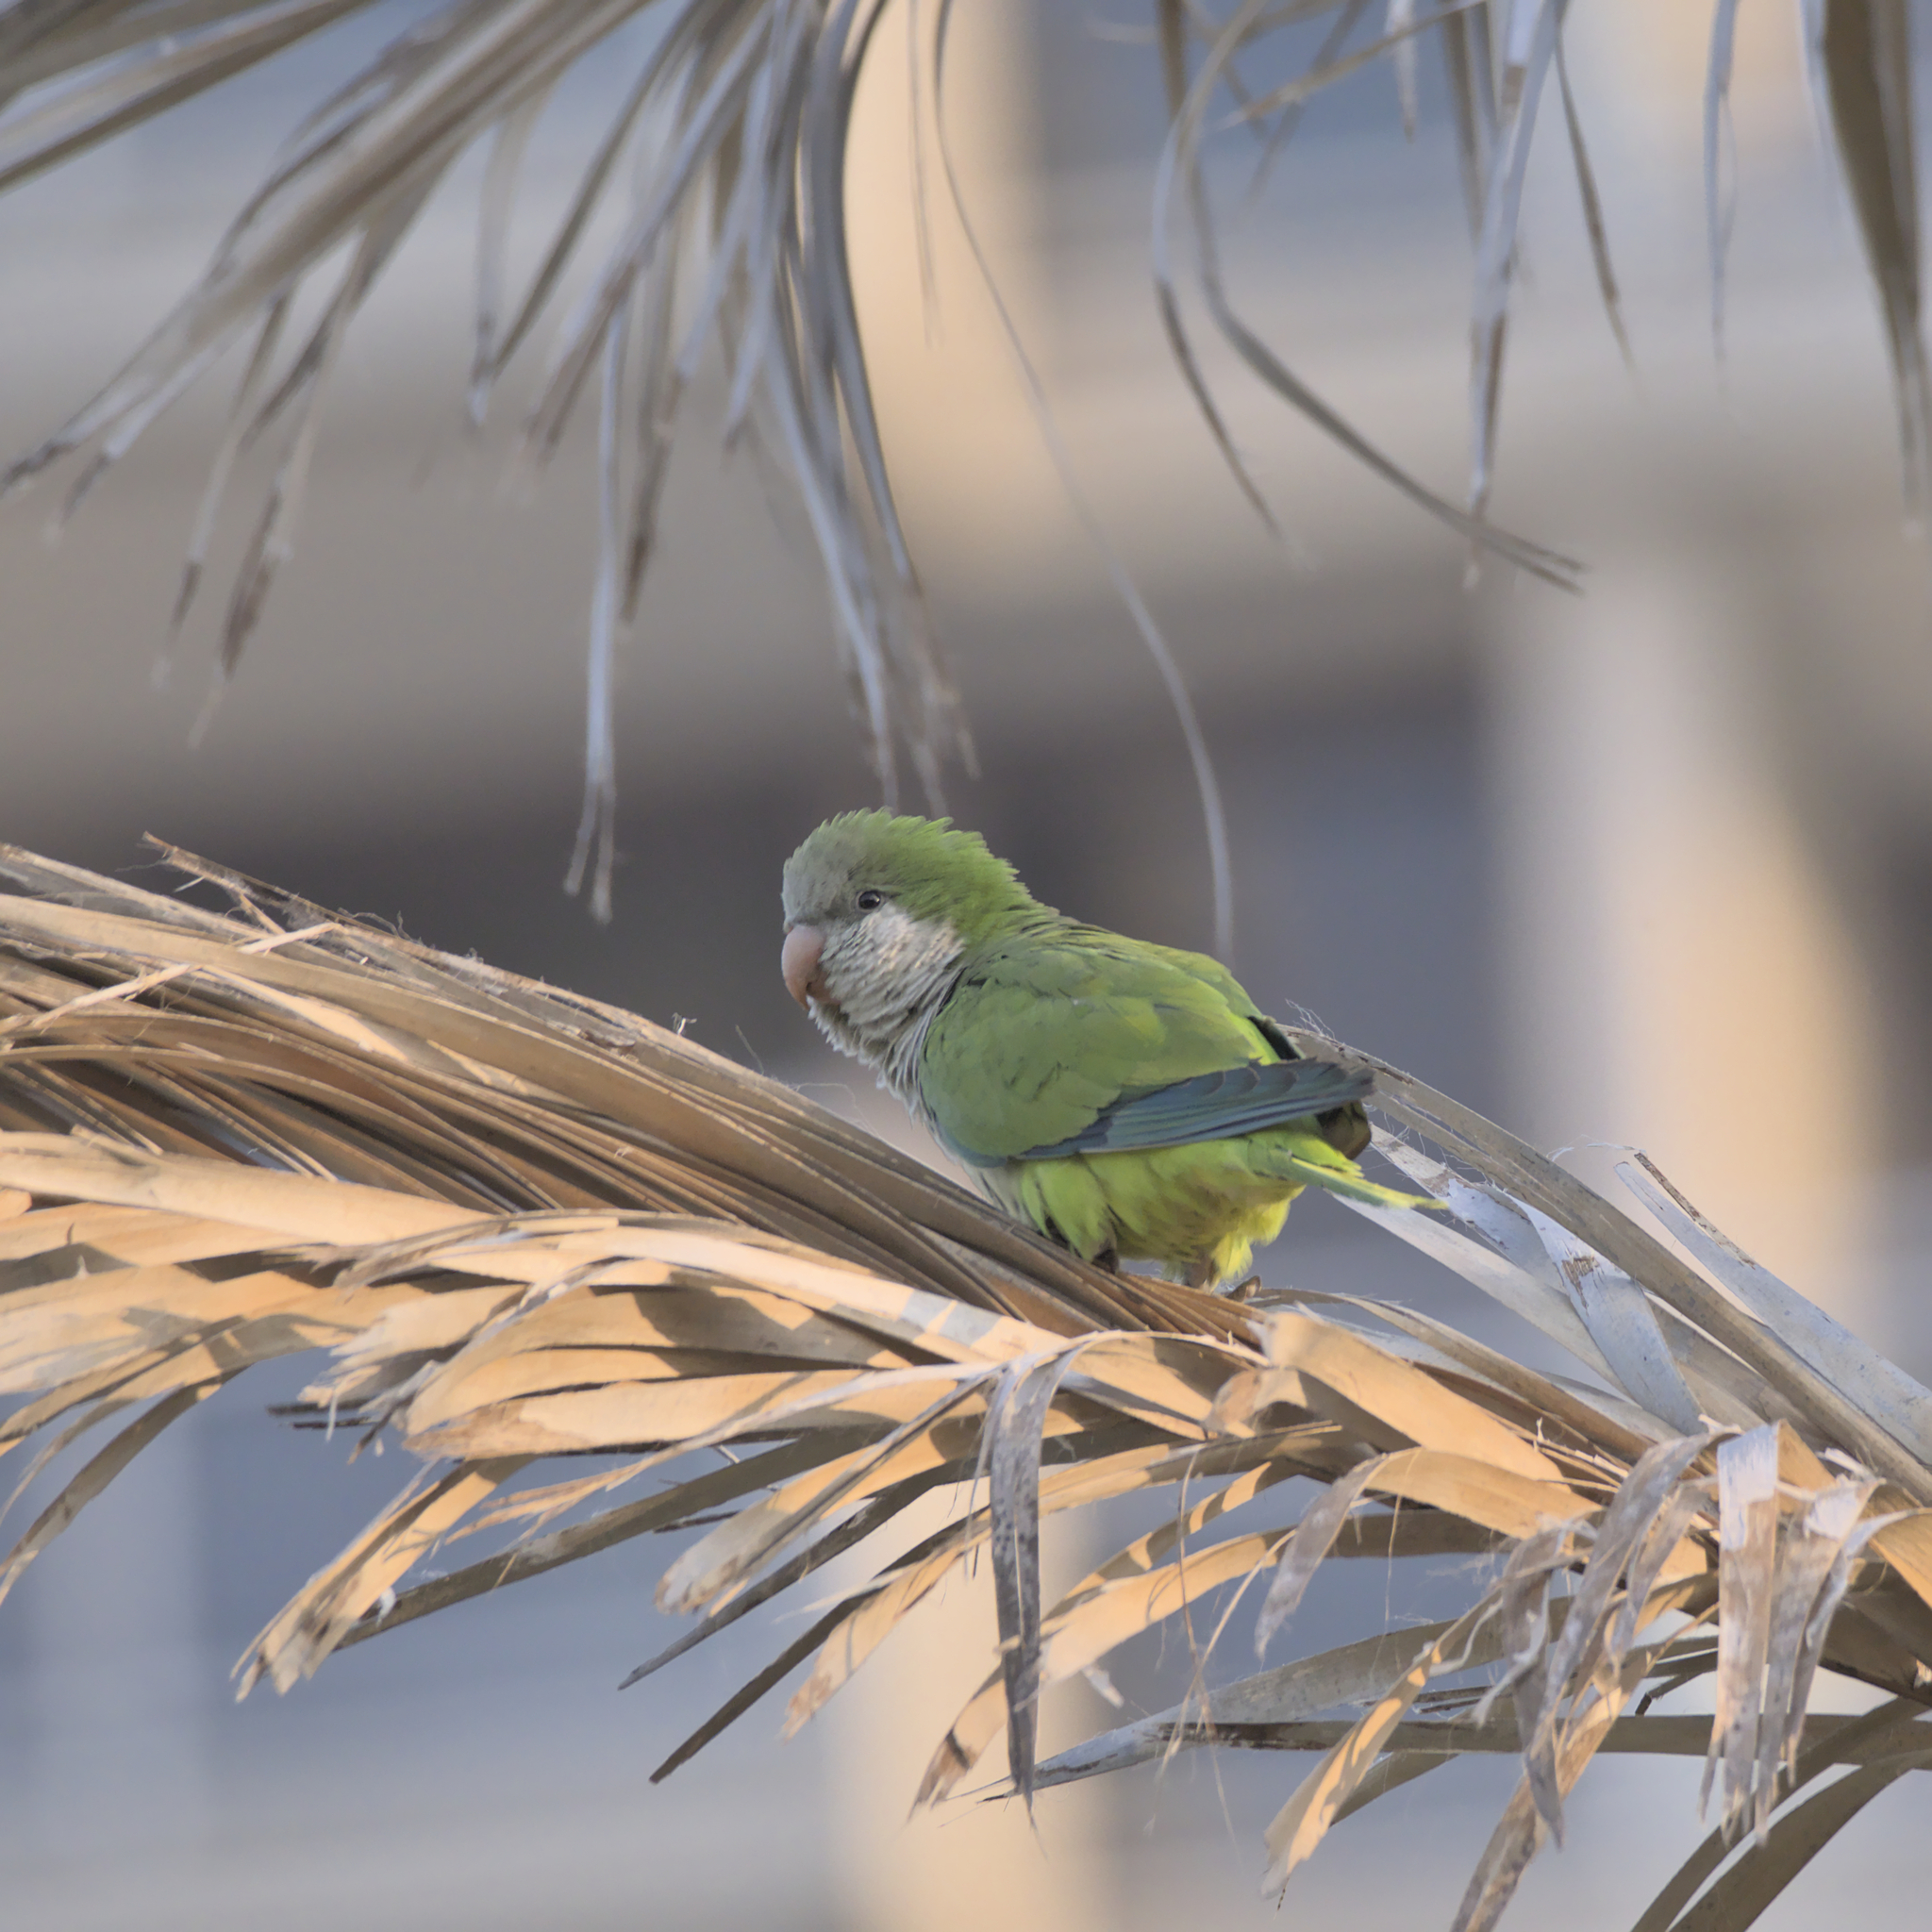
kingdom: Animalia
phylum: Chordata
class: Aves
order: Psittaciformes
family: Psittacidae
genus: Myiopsitta
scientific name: Myiopsitta monachus
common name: Monk parakeet
